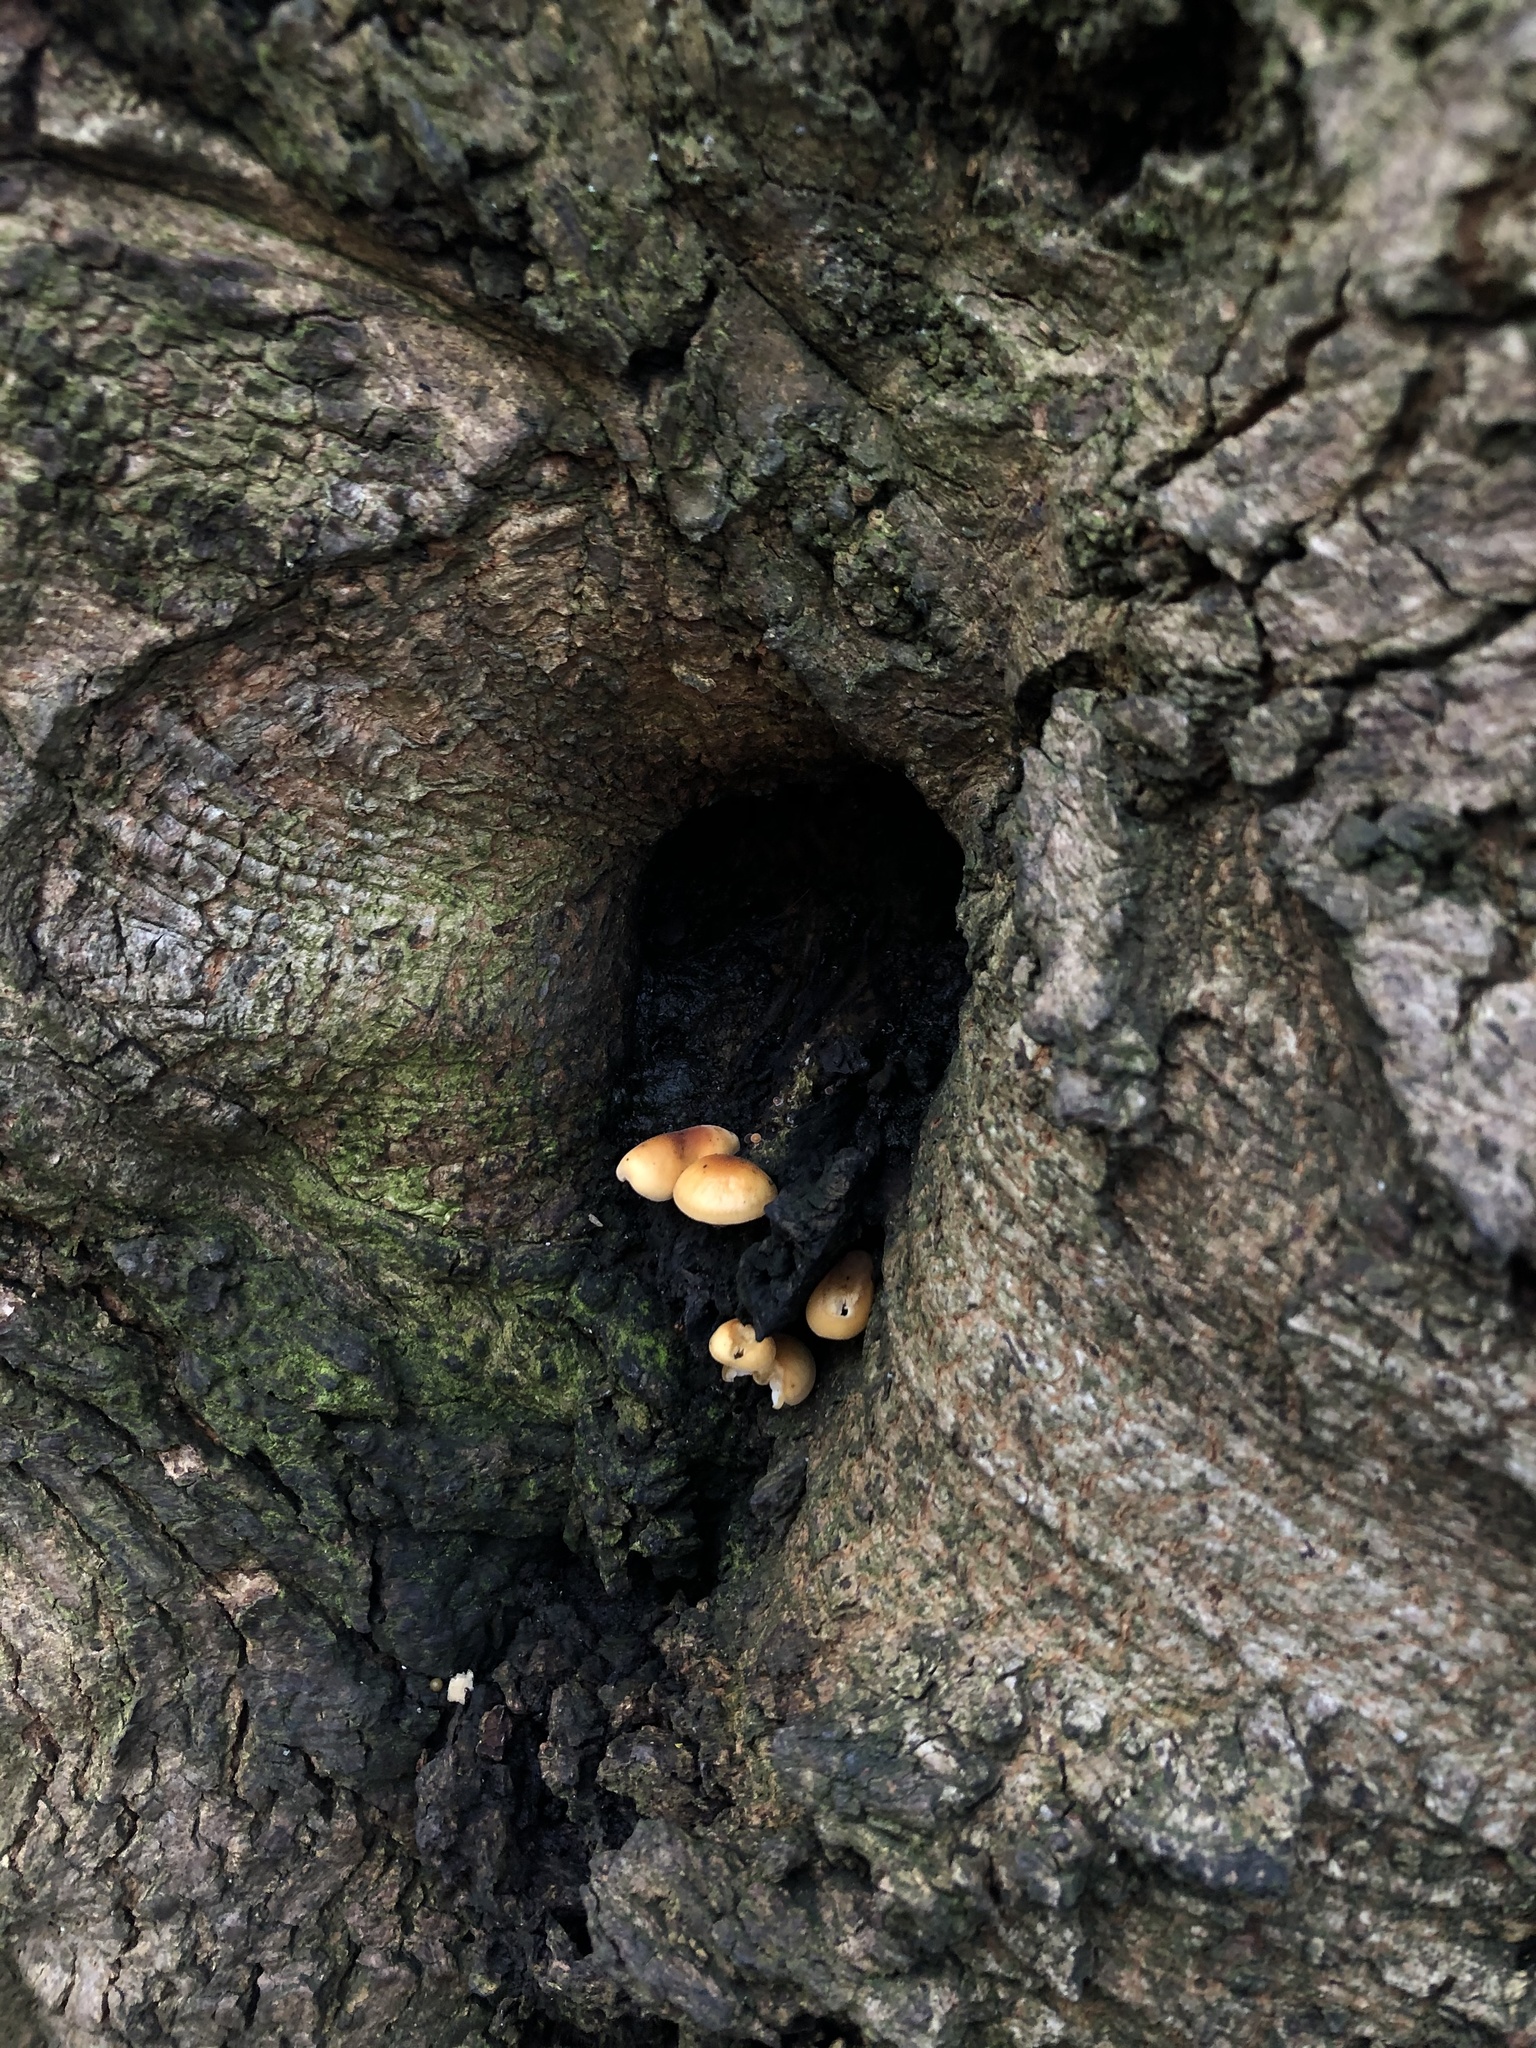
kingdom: Fungi
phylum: Basidiomycota
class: Agaricomycetes
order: Agaricales
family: Physalacriaceae
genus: Flammulina
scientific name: Flammulina
